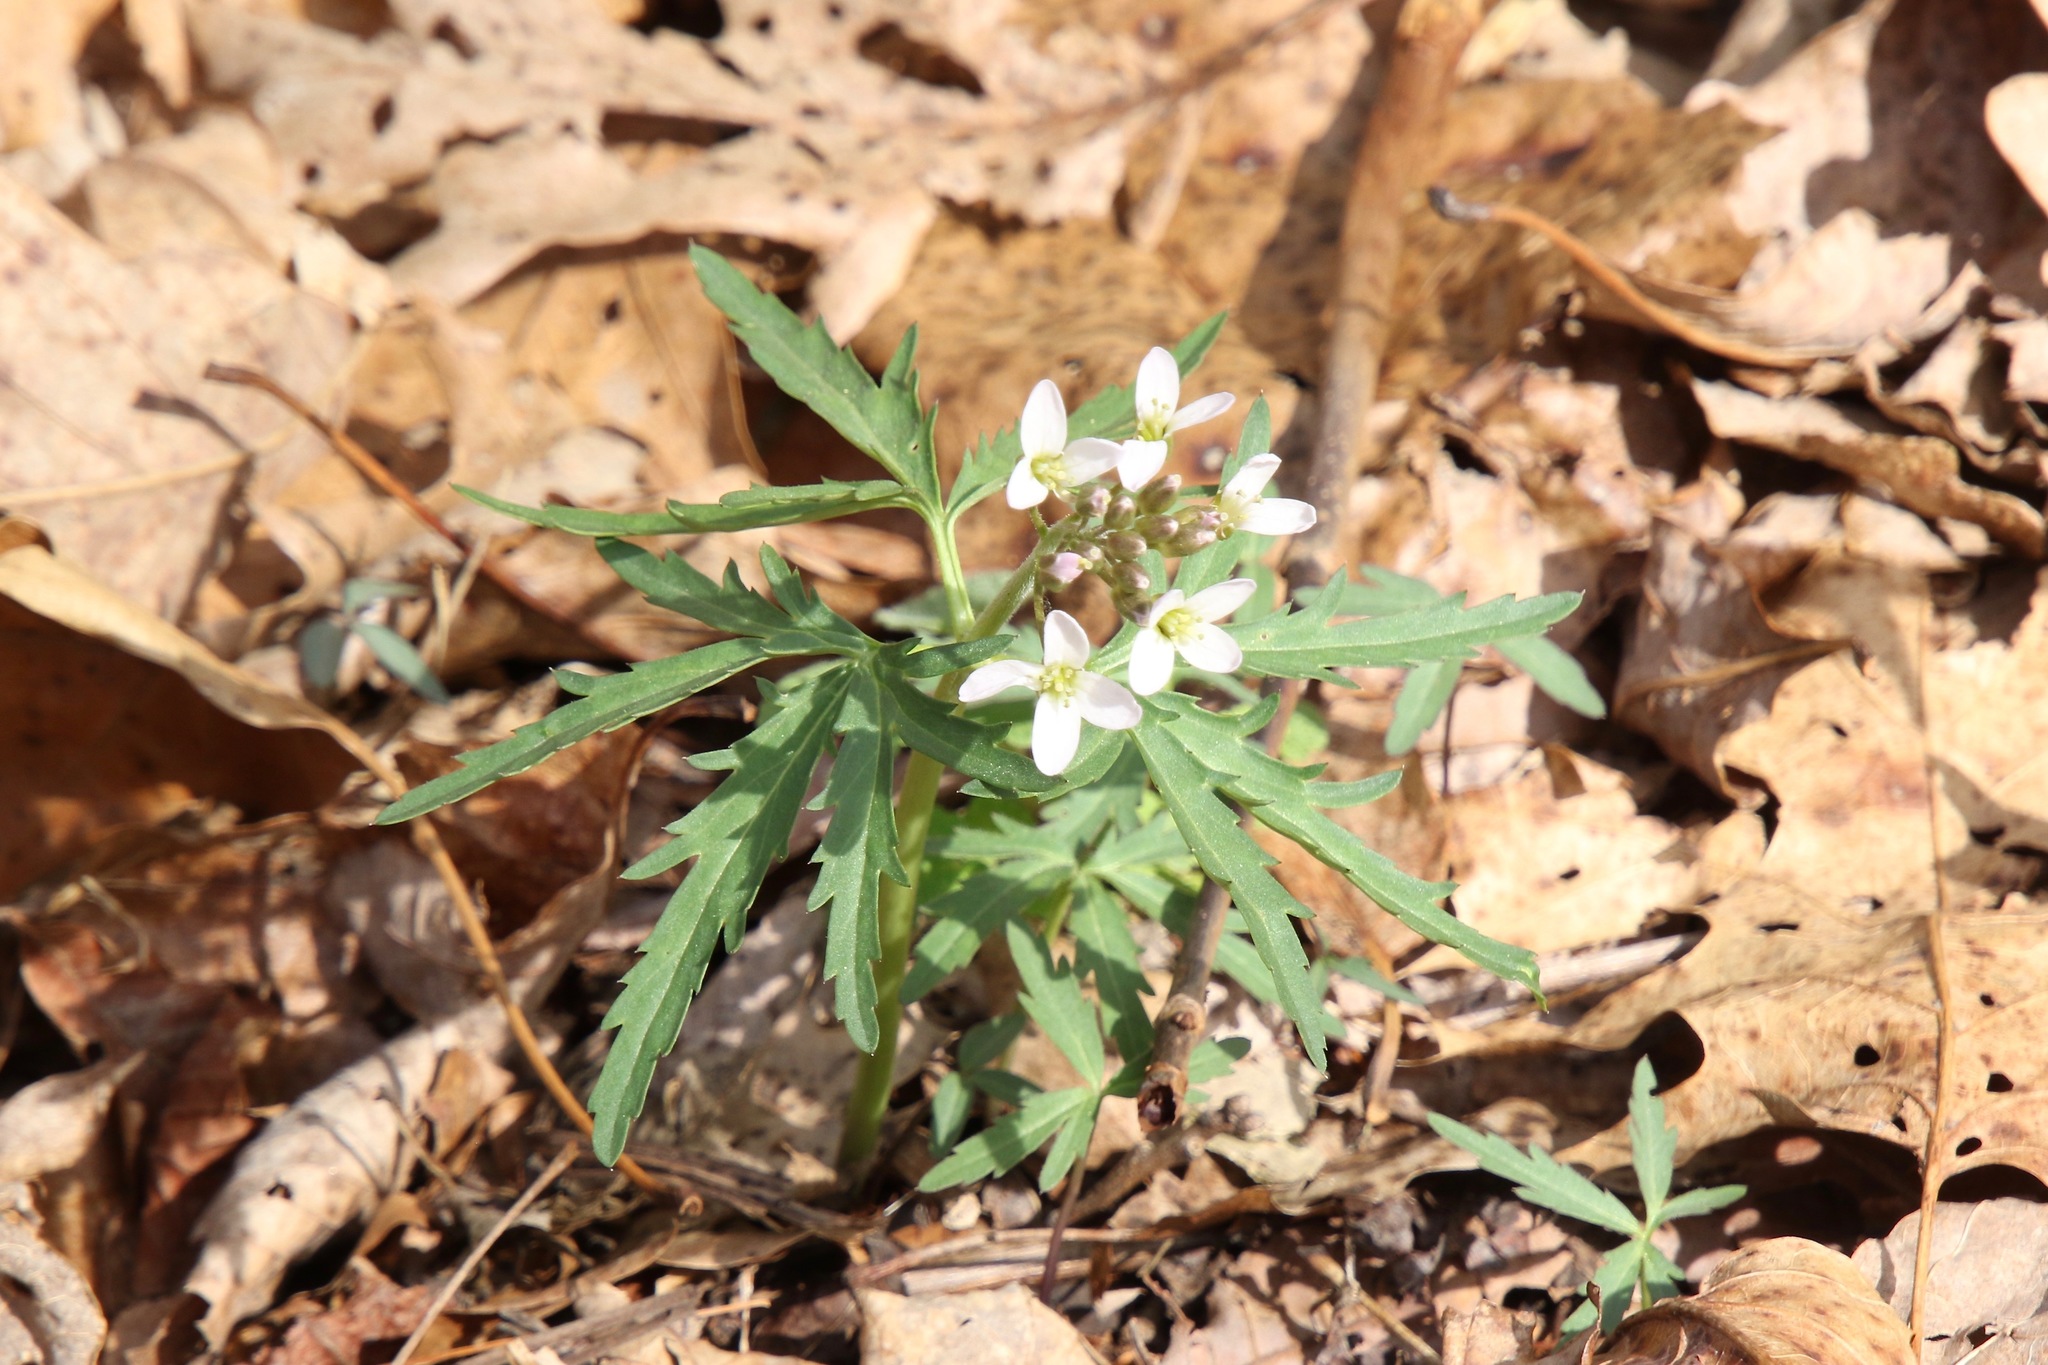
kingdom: Plantae
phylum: Tracheophyta
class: Magnoliopsida
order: Brassicales
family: Brassicaceae
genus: Cardamine
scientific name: Cardamine concatenata
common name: Cut-leaf toothcup
